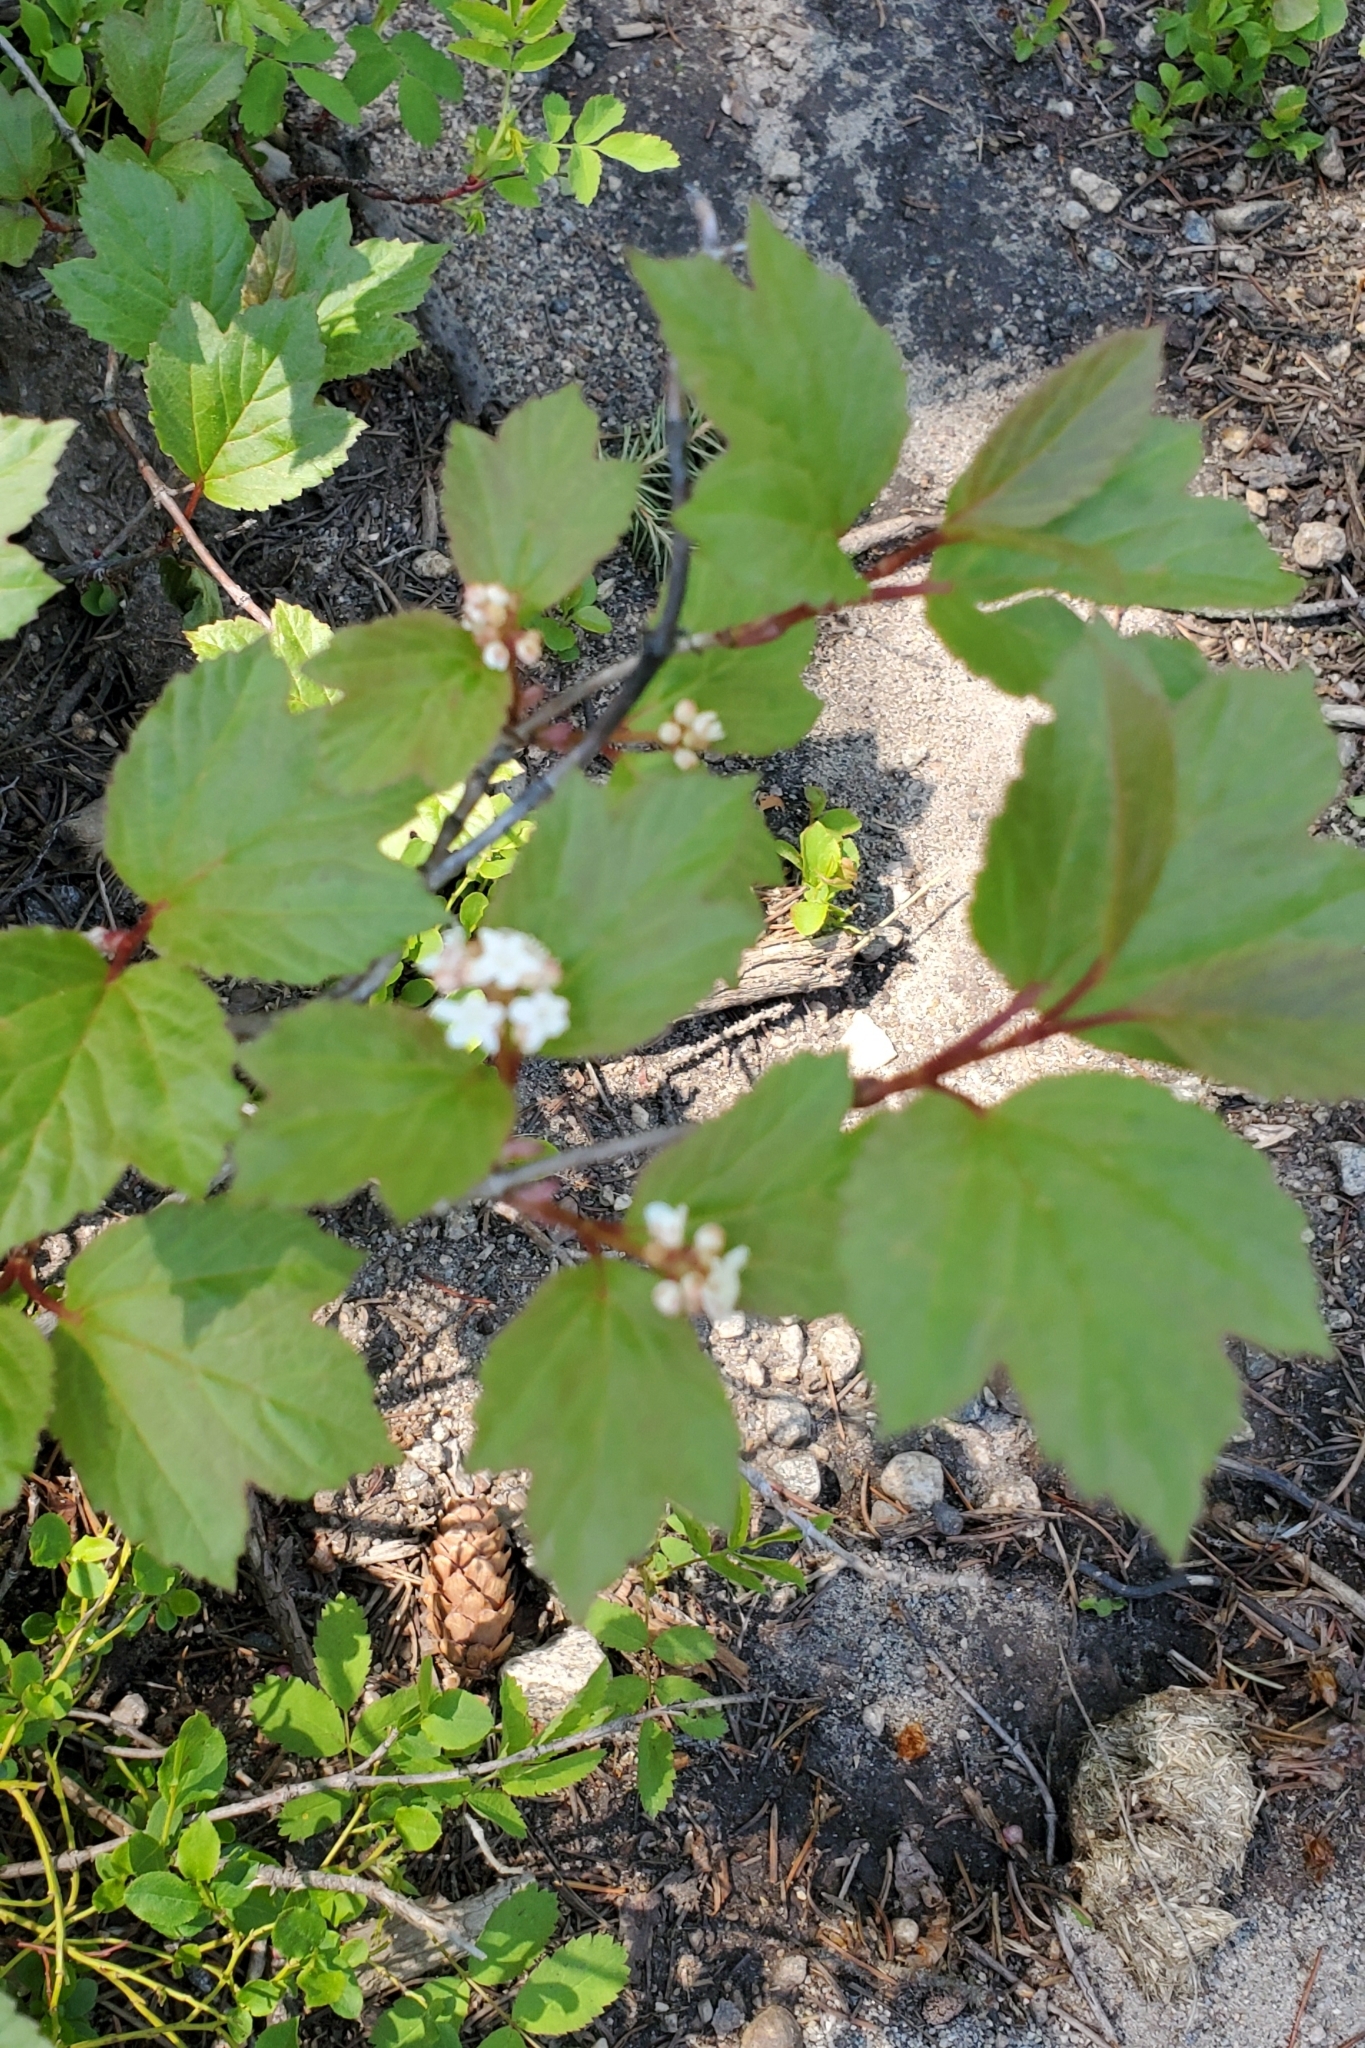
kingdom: Plantae
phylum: Tracheophyta
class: Magnoliopsida
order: Dipsacales
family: Viburnaceae
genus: Viburnum
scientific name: Viburnum edule
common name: Mooseberry
